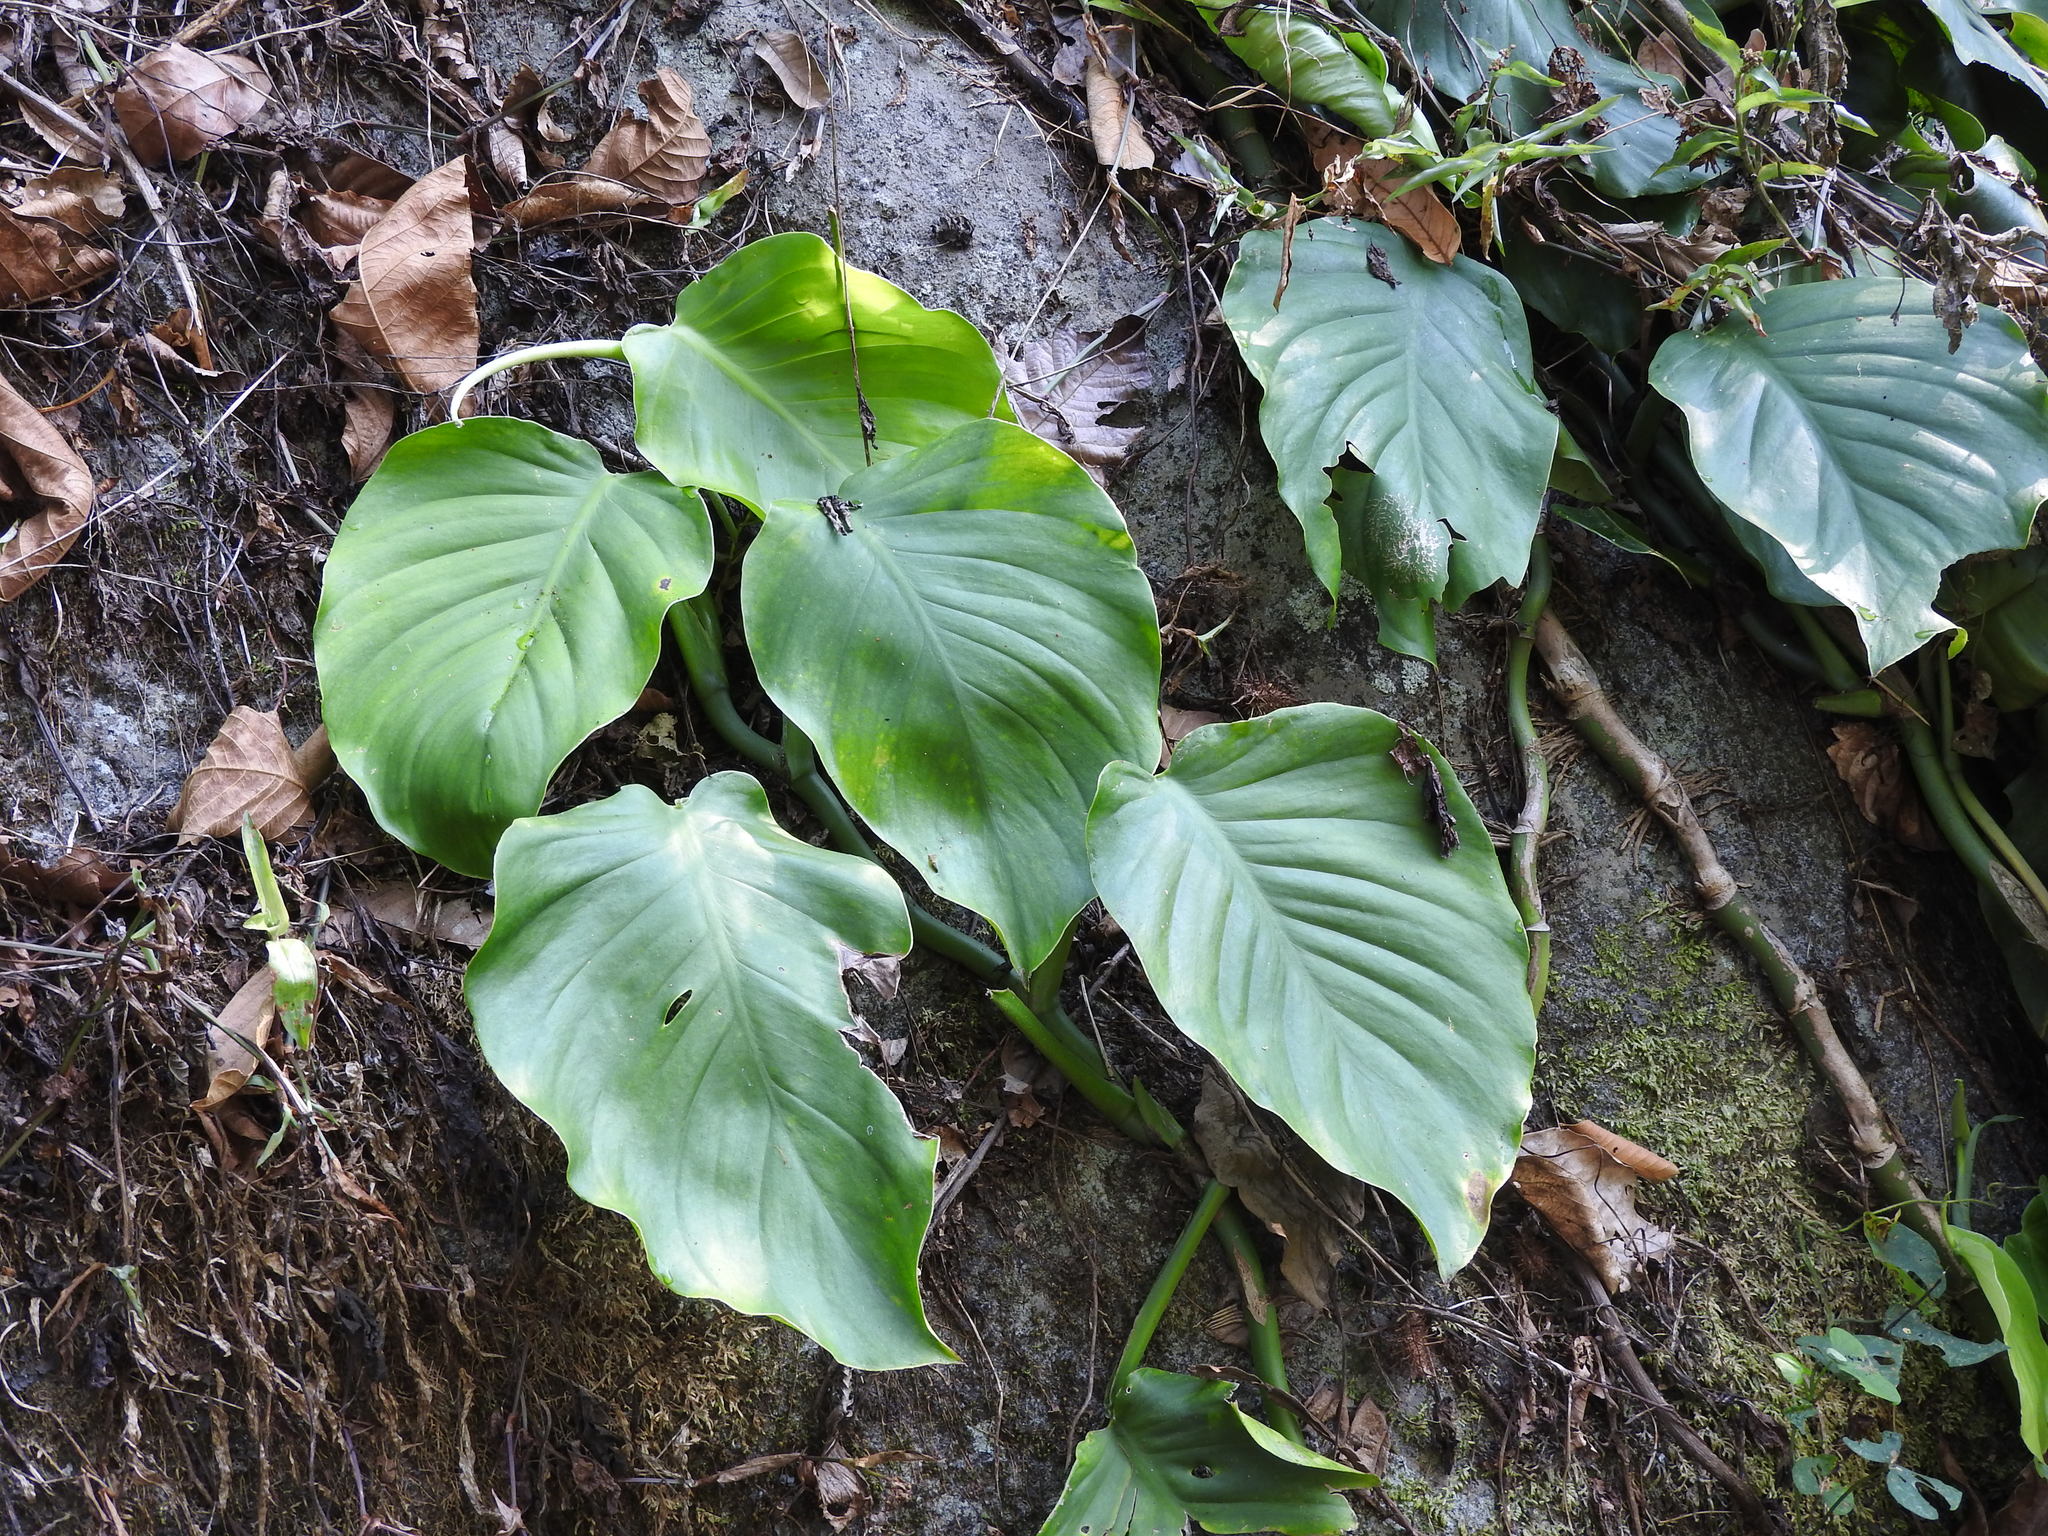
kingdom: Plantae
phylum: Tracheophyta
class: Liliopsida
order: Alismatales
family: Araceae
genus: Monstera
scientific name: Monstera acuminata
